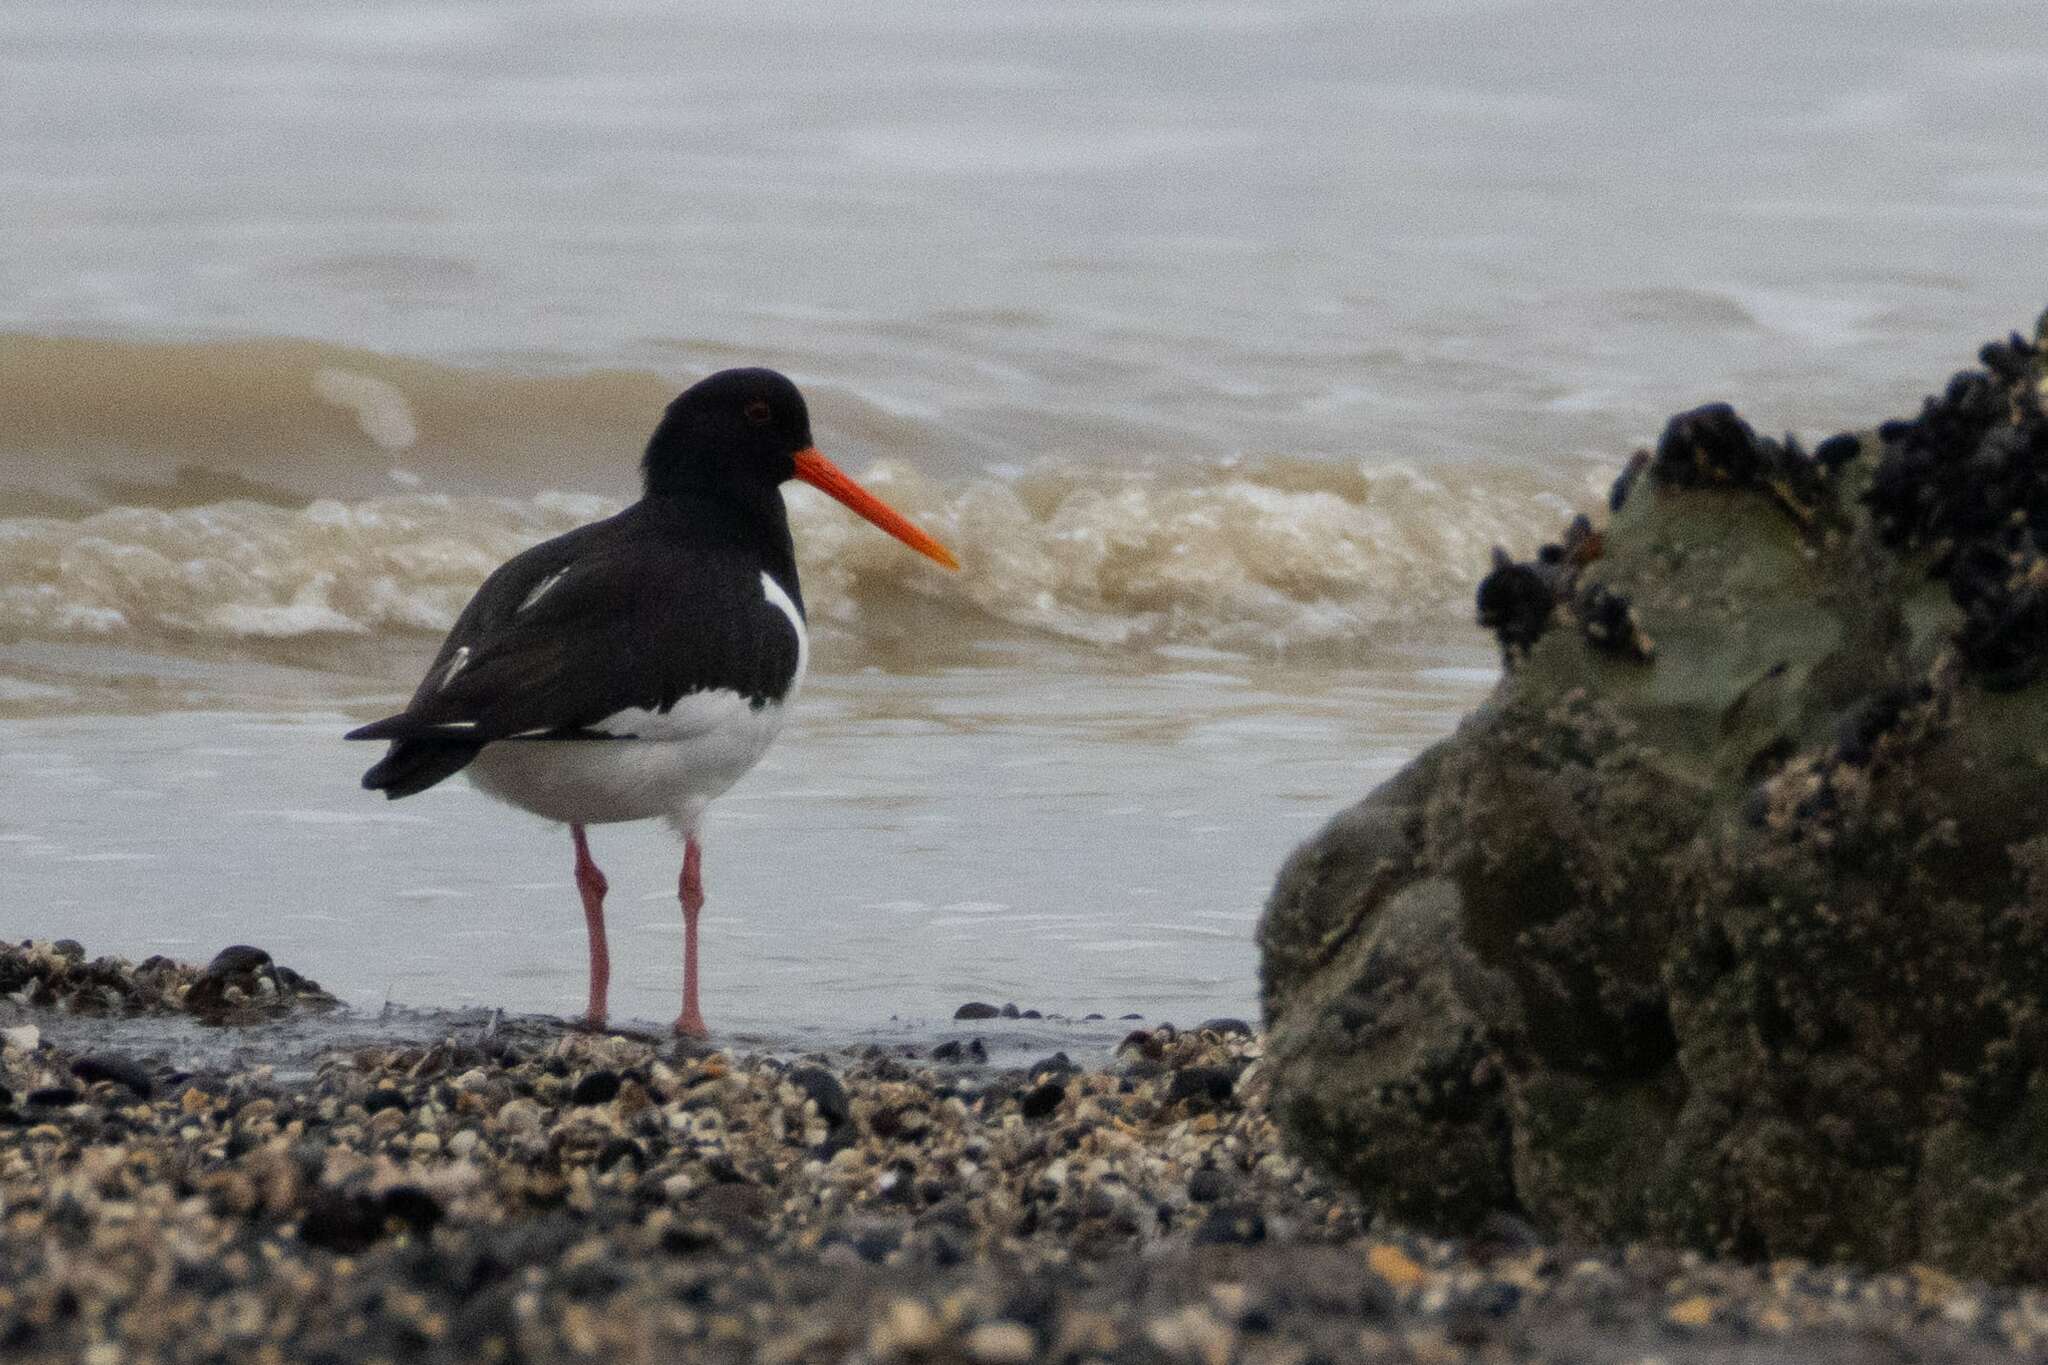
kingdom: Animalia
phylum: Chordata
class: Aves
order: Charadriiformes
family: Haematopodidae
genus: Haematopus
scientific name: Haematopus ostralegus
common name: Eurasian oystercatcher
